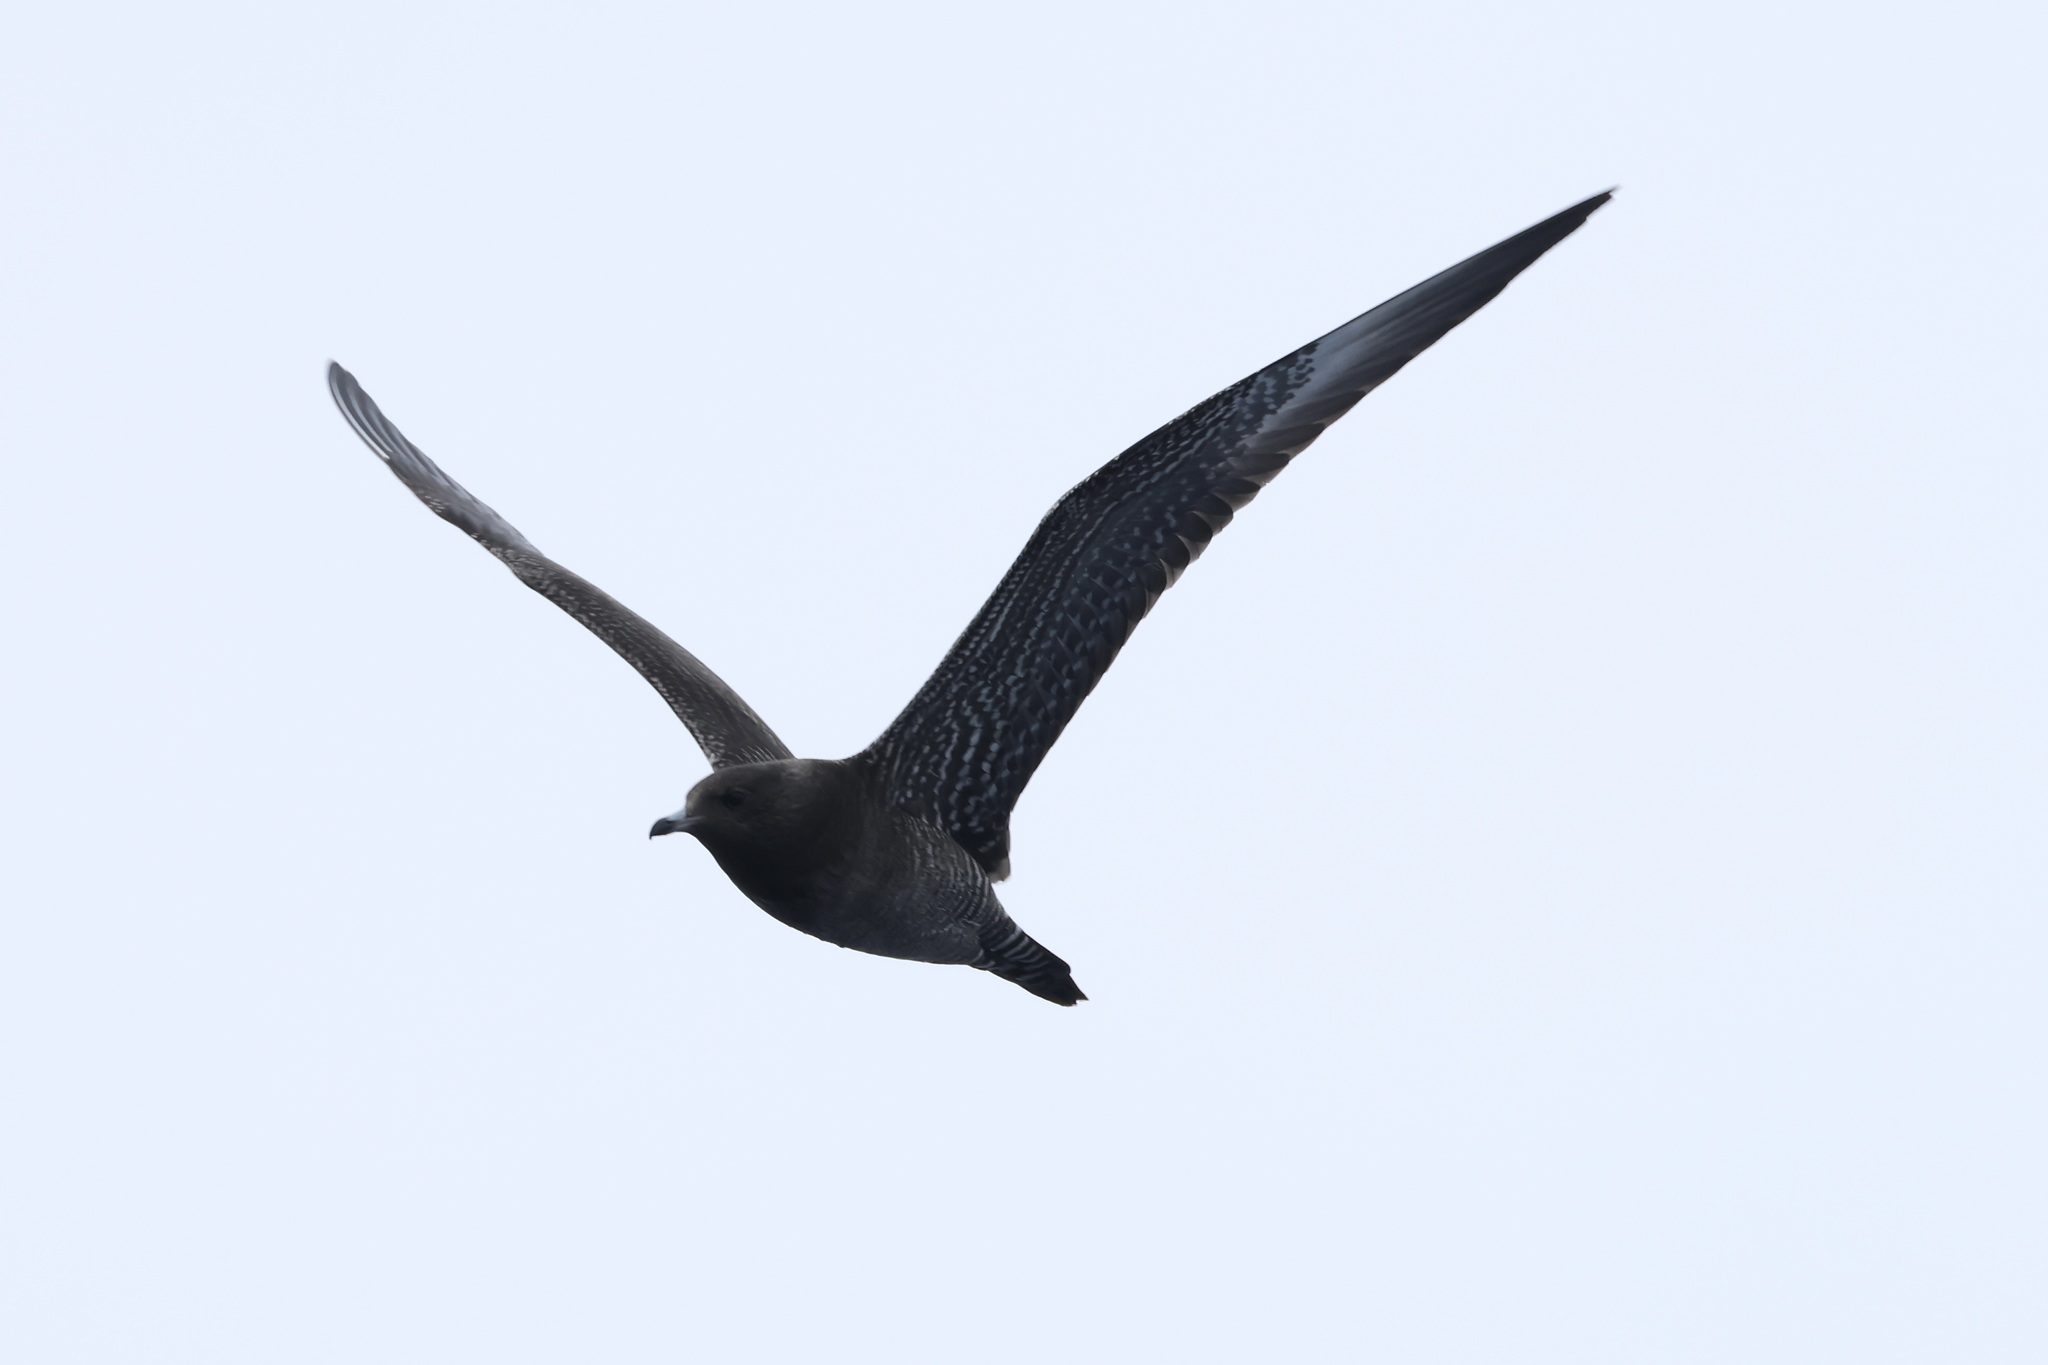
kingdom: Animalia
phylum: Chordata
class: Aves
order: Charadriiformes
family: Stercorariidae
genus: Stercorarius
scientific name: Stercorarius longicaudus
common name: Long-tailed jaeger
